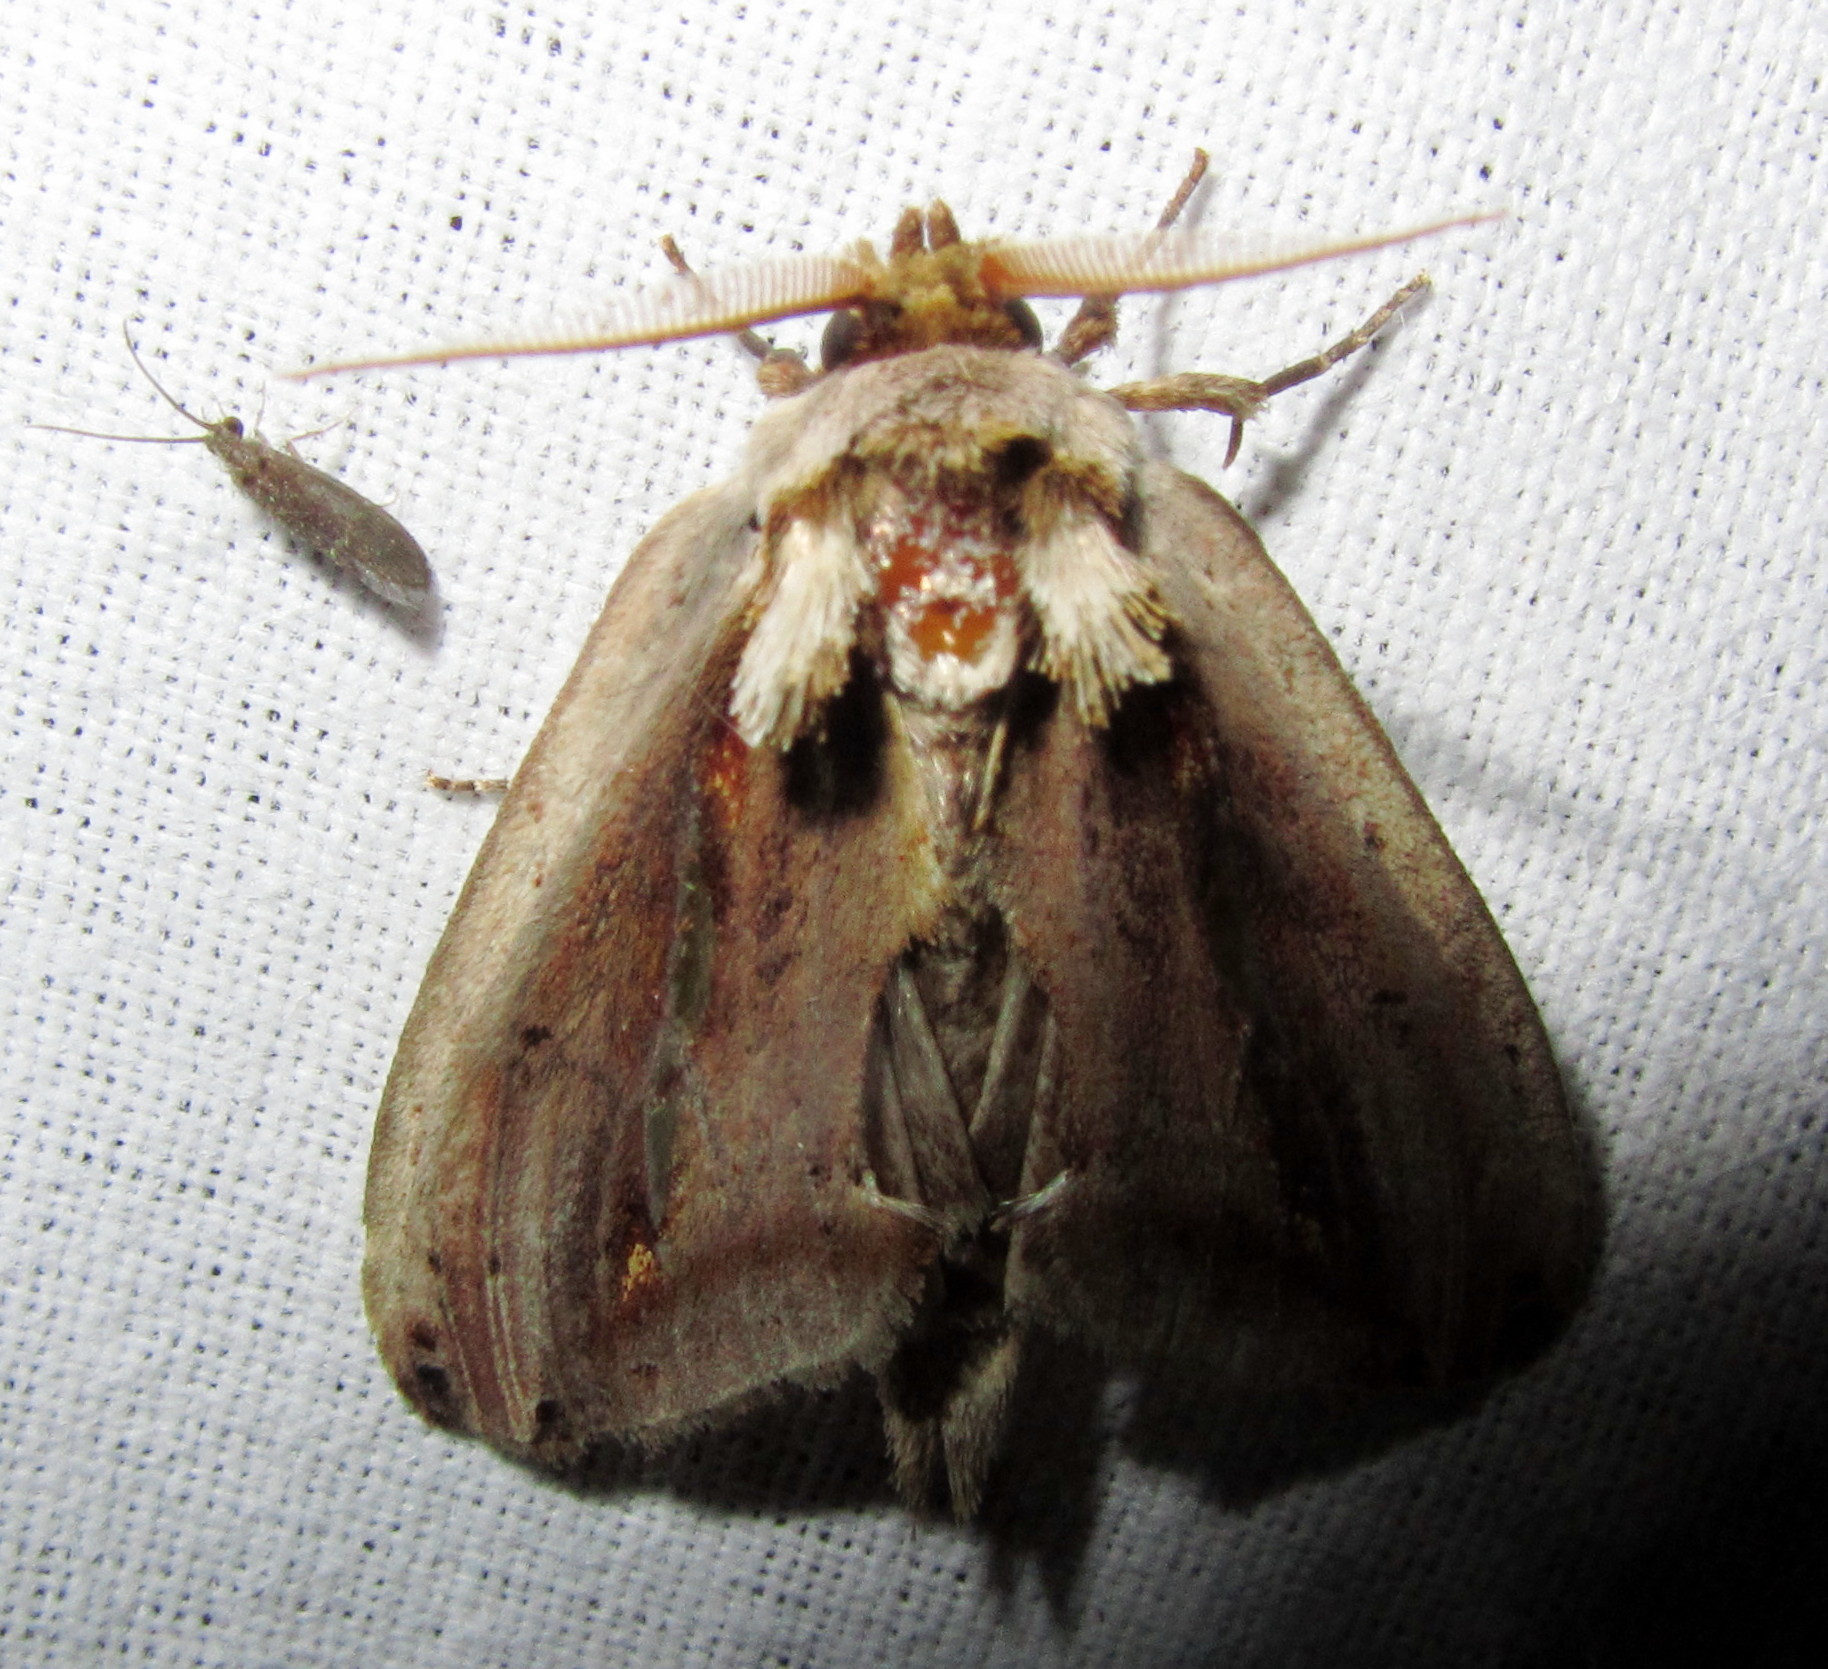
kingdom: Animalia
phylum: Arthropoda
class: Insecta
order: Lepidoptera
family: Notodontidae
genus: Rosama
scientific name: Rosama auritracta
